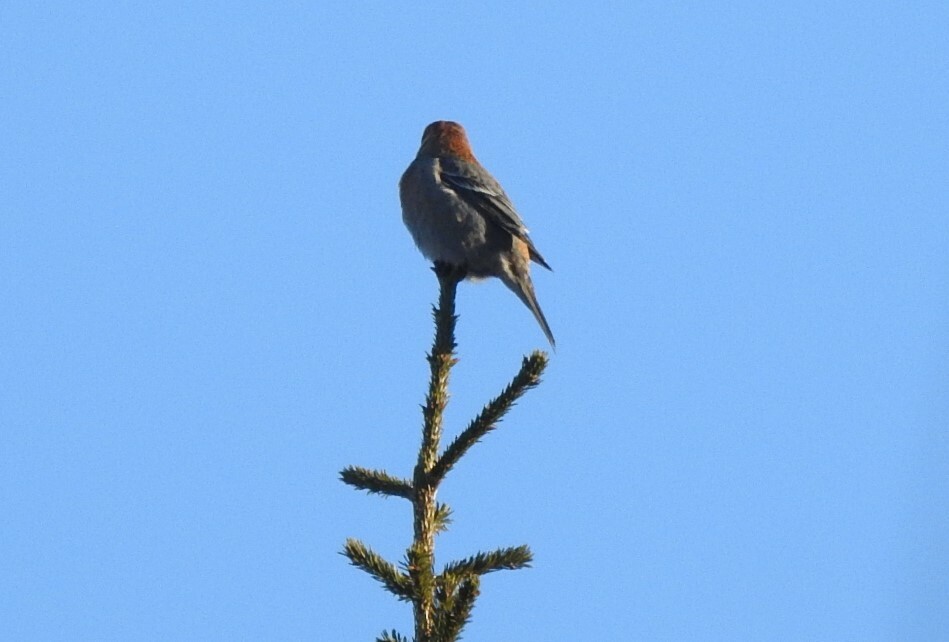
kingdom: Animalia
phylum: Chordata
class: Aves
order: Passeriformes
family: Fringillidae
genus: Pinicola
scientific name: Pinicola enucleator
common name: Pine grosbeak
